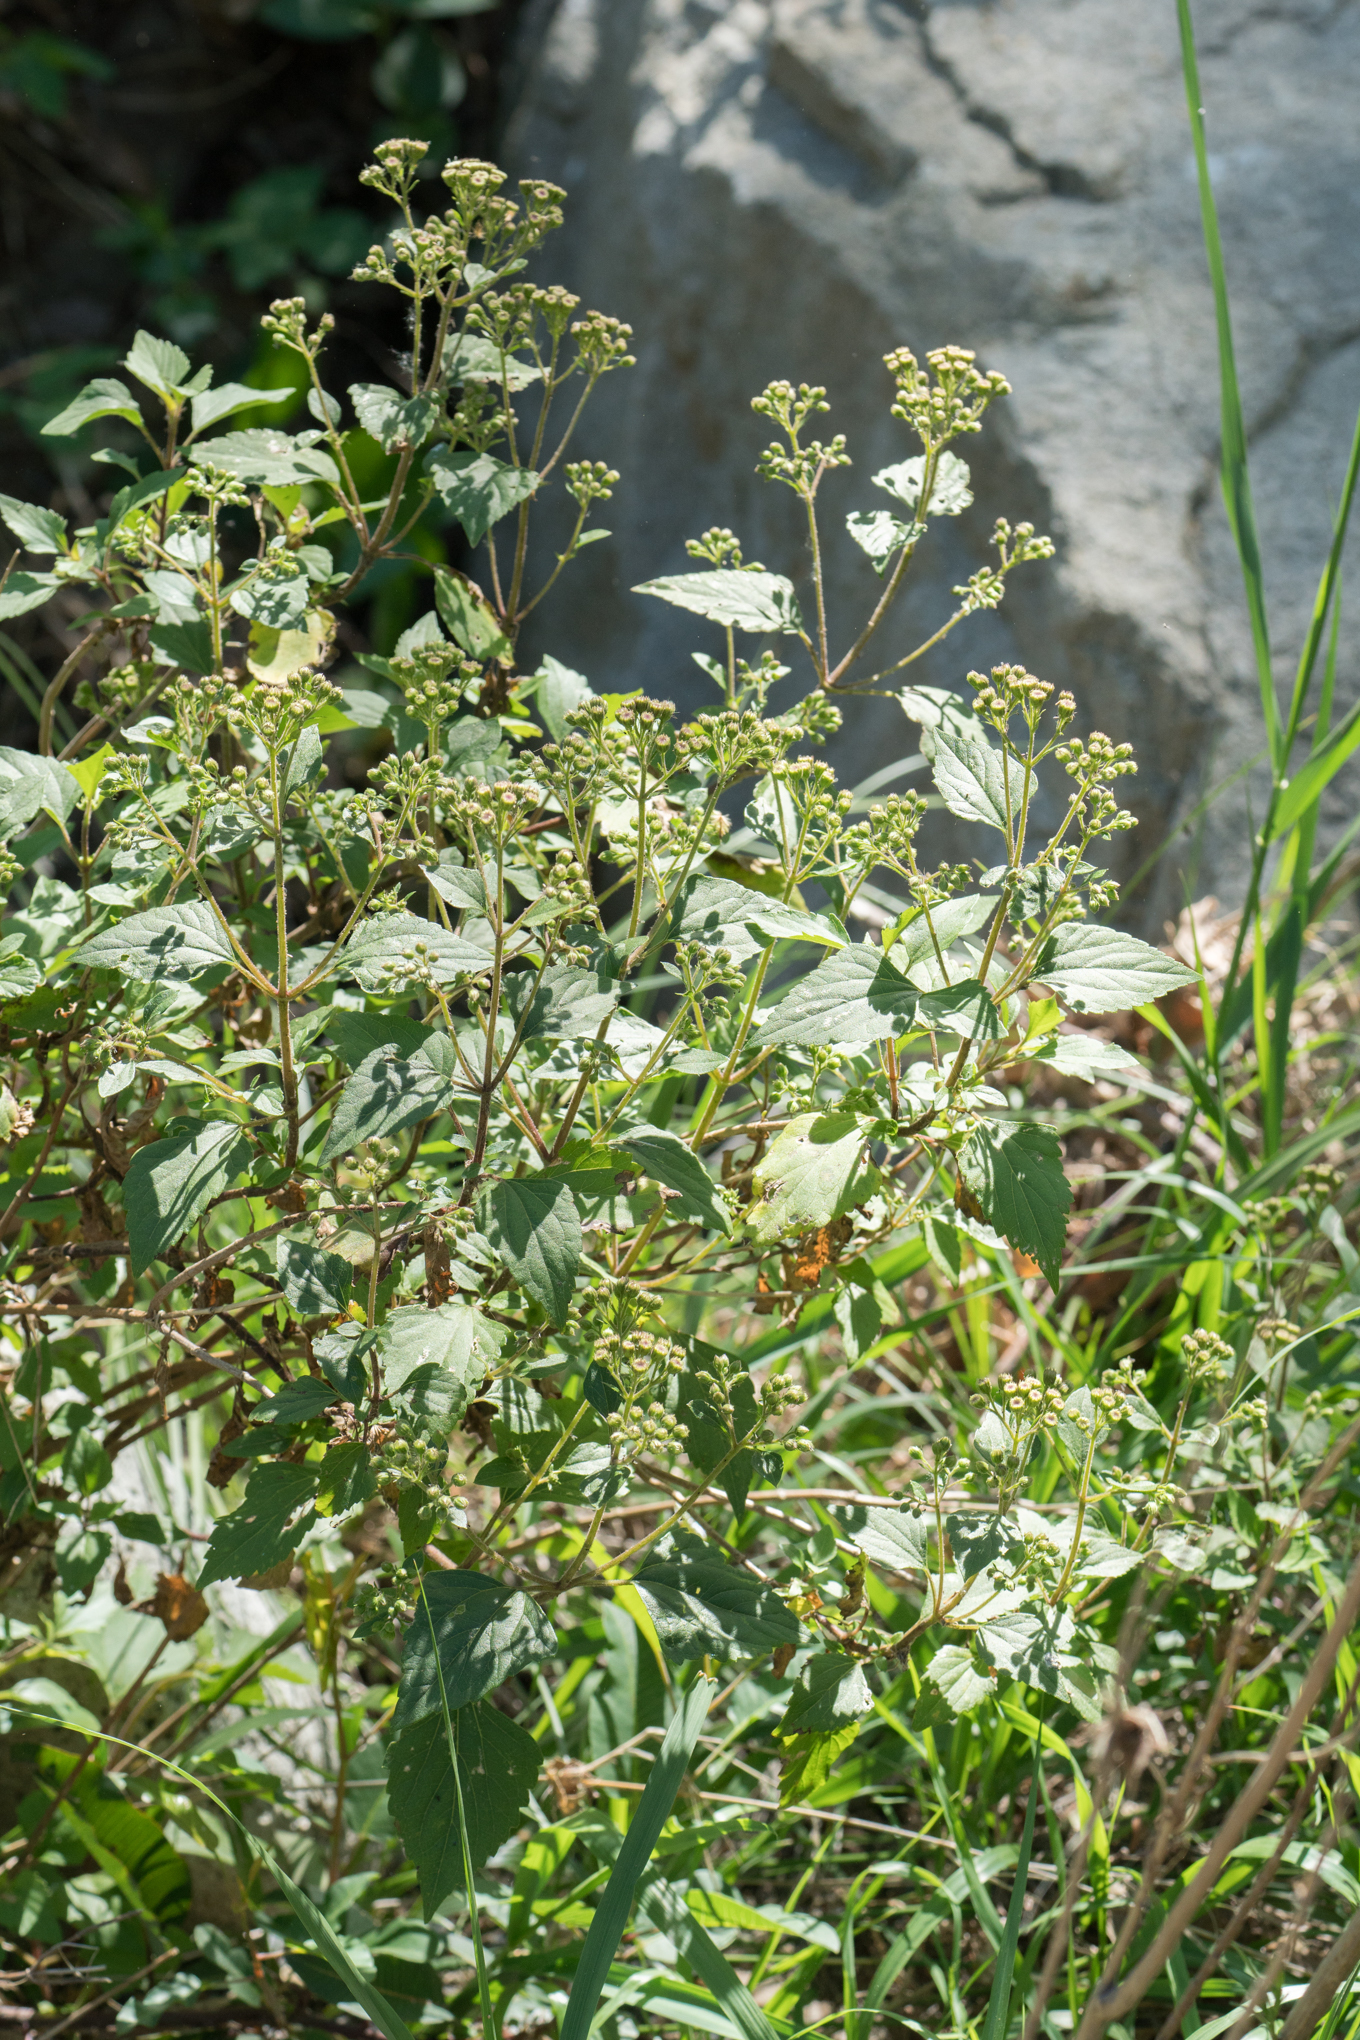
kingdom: Plantae
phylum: Tracheophyta
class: Magnoliopsida
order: Asterales
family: Asteraceae
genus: Ageratina
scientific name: Ageratina adenophora
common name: Sticky snakeroot
